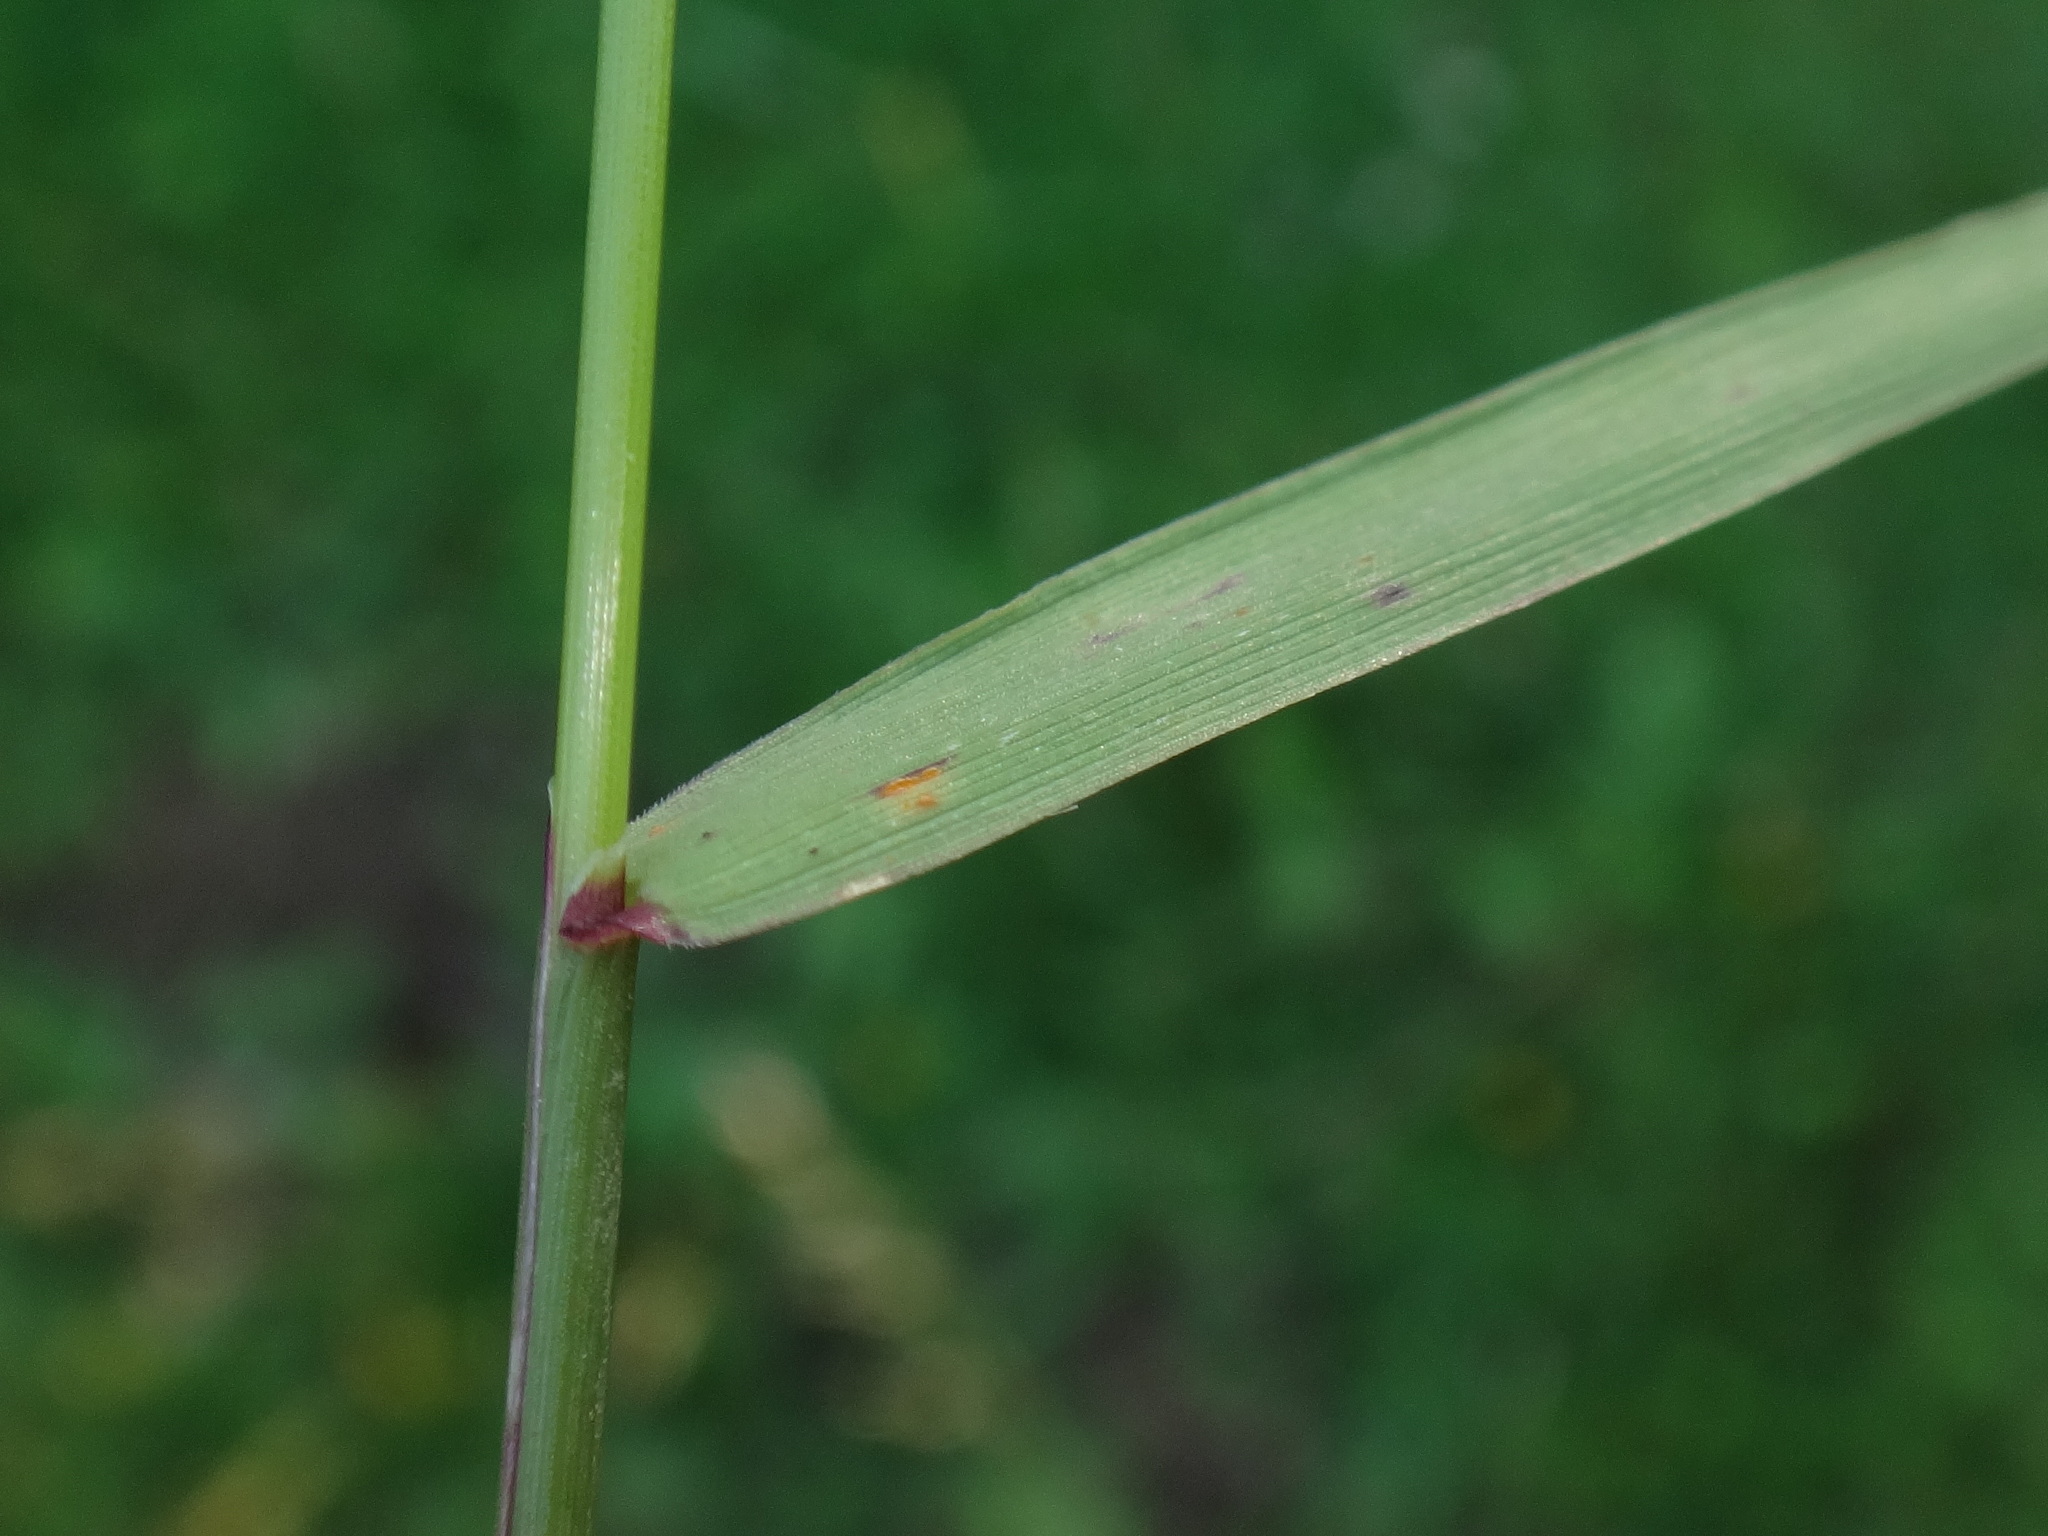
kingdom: Plantae
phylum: Tracheophyta
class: Liliopsida
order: Poales
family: Poaceae
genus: Agrostis
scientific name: Agrostis capillaris
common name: Colonial bentgrass
